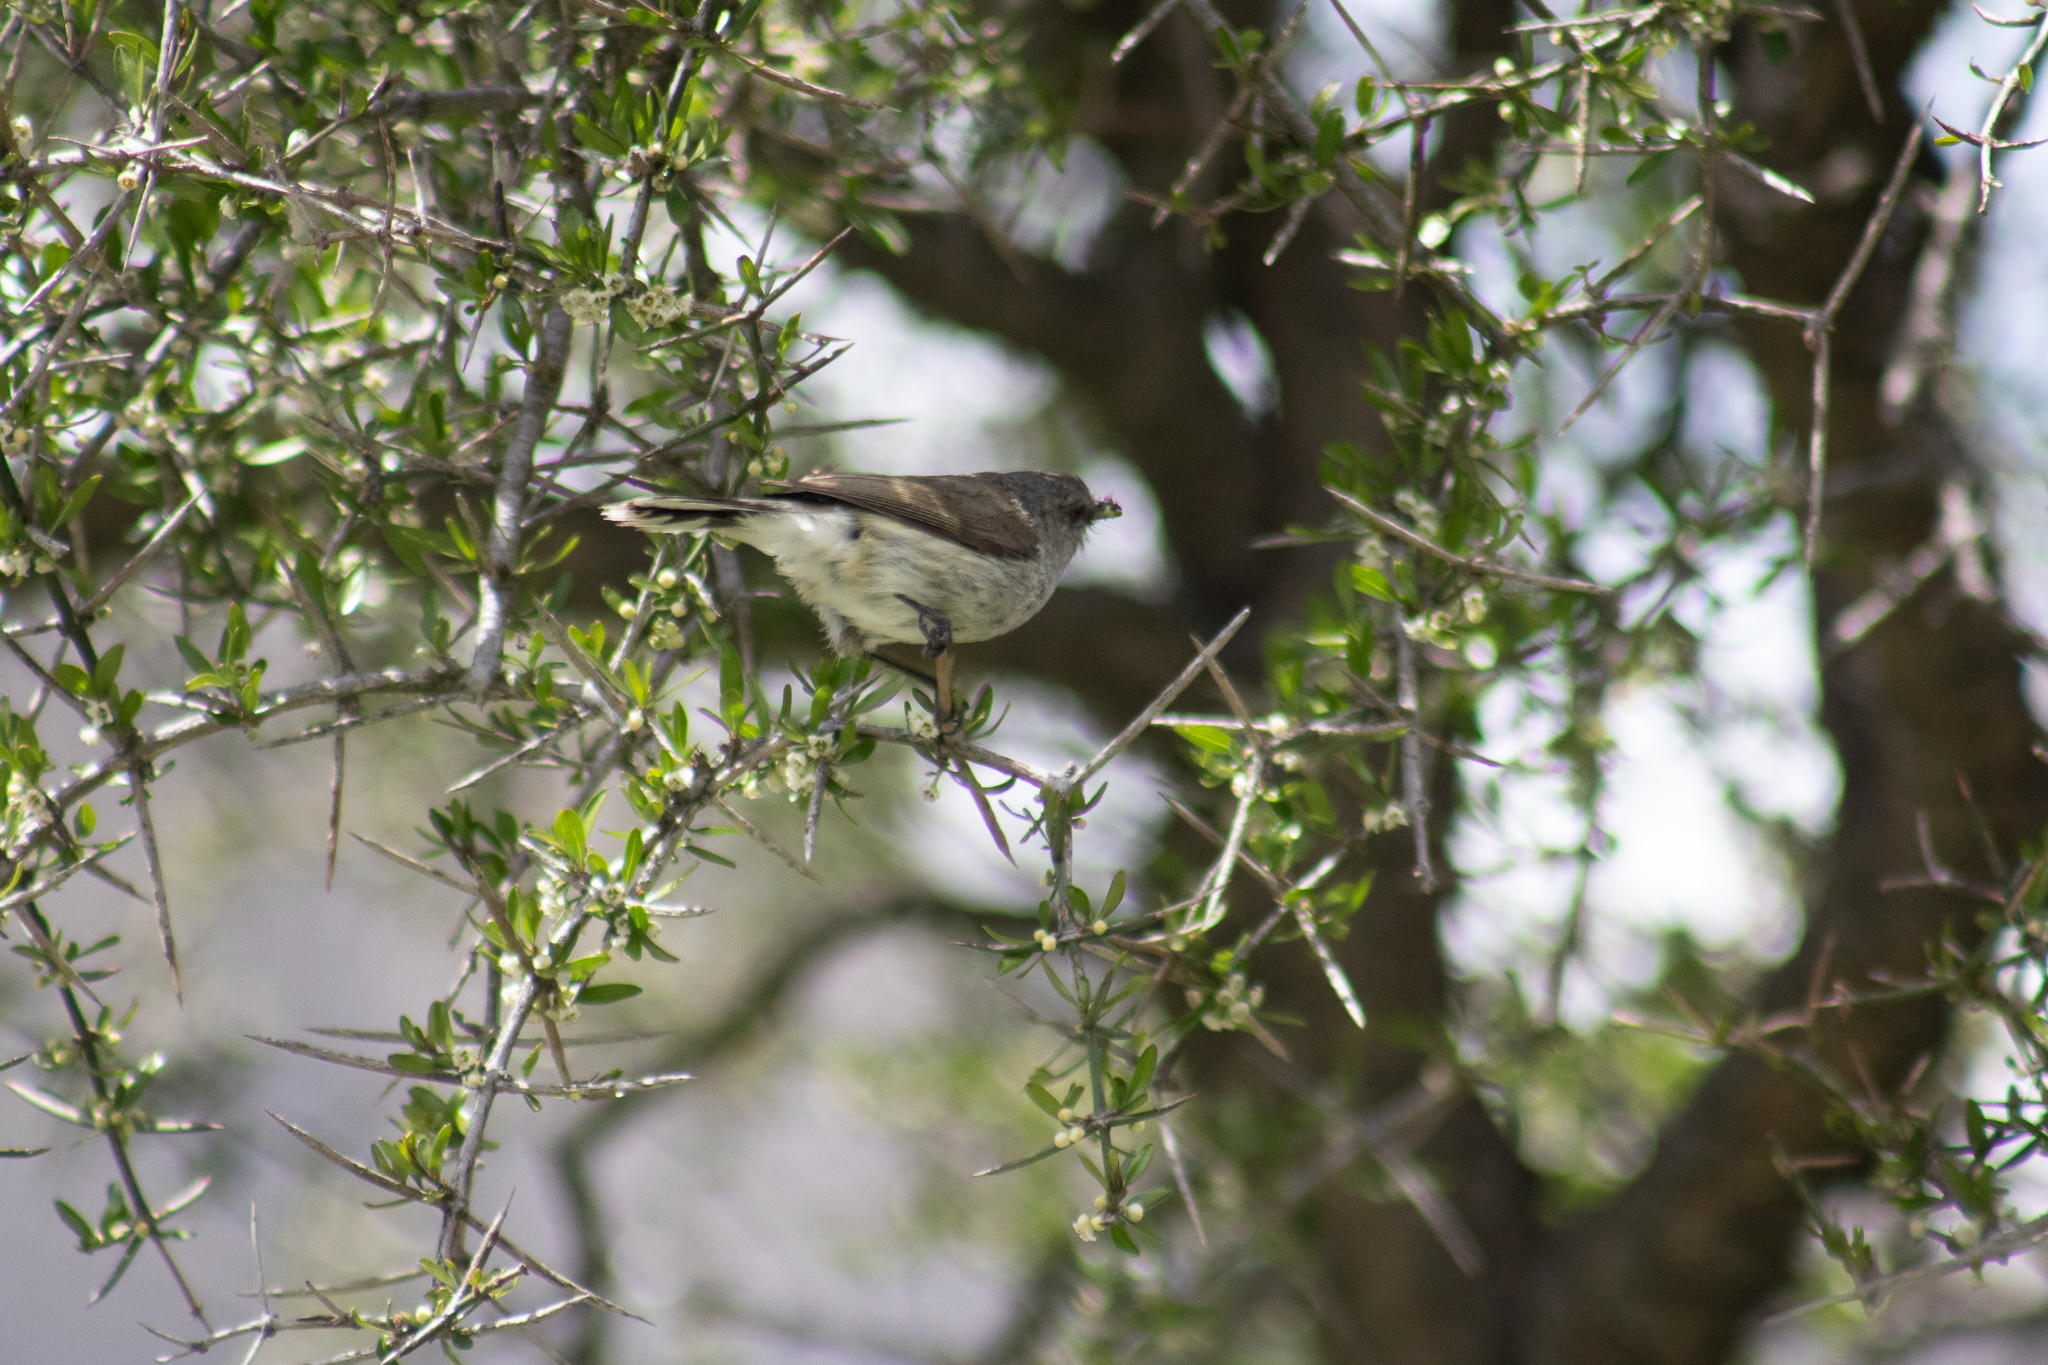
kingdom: Animalia
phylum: Chordata
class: Aves
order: Passeriformes
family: Acanthizidae
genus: Gerygone
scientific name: Gerygone igata
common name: Grey gerygone
